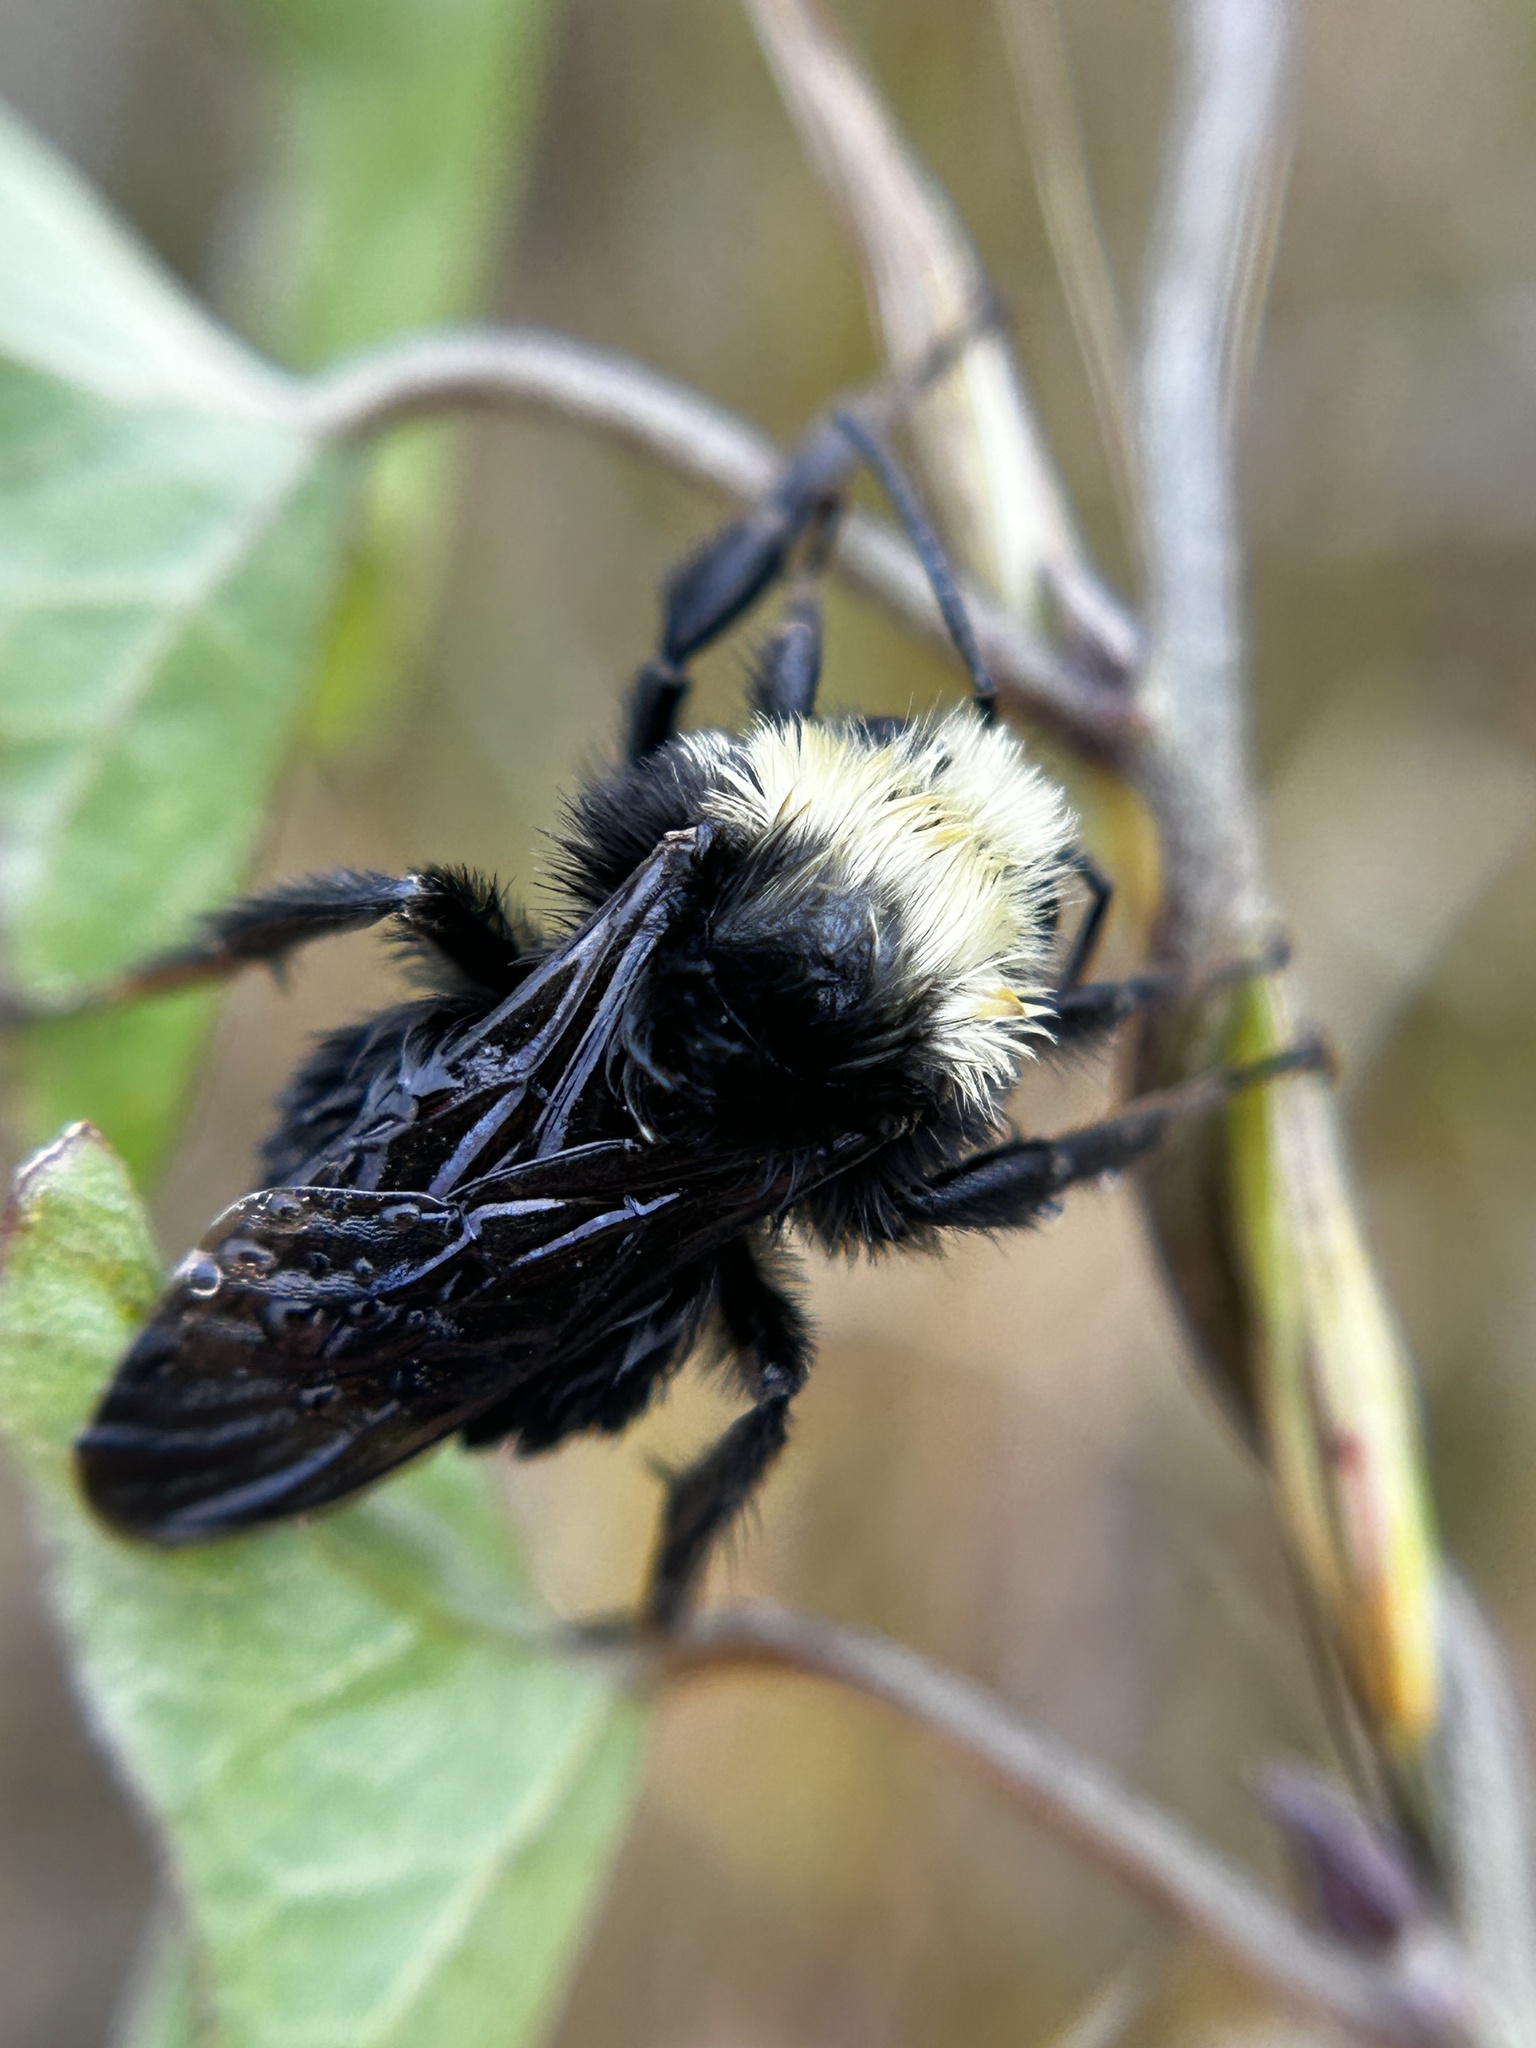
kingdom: Animalia
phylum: Arthropoda
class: Insecta
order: Hymenoptera
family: Apidae
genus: Bombus
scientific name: Bombus caliginosus
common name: Obscure bumble bee
